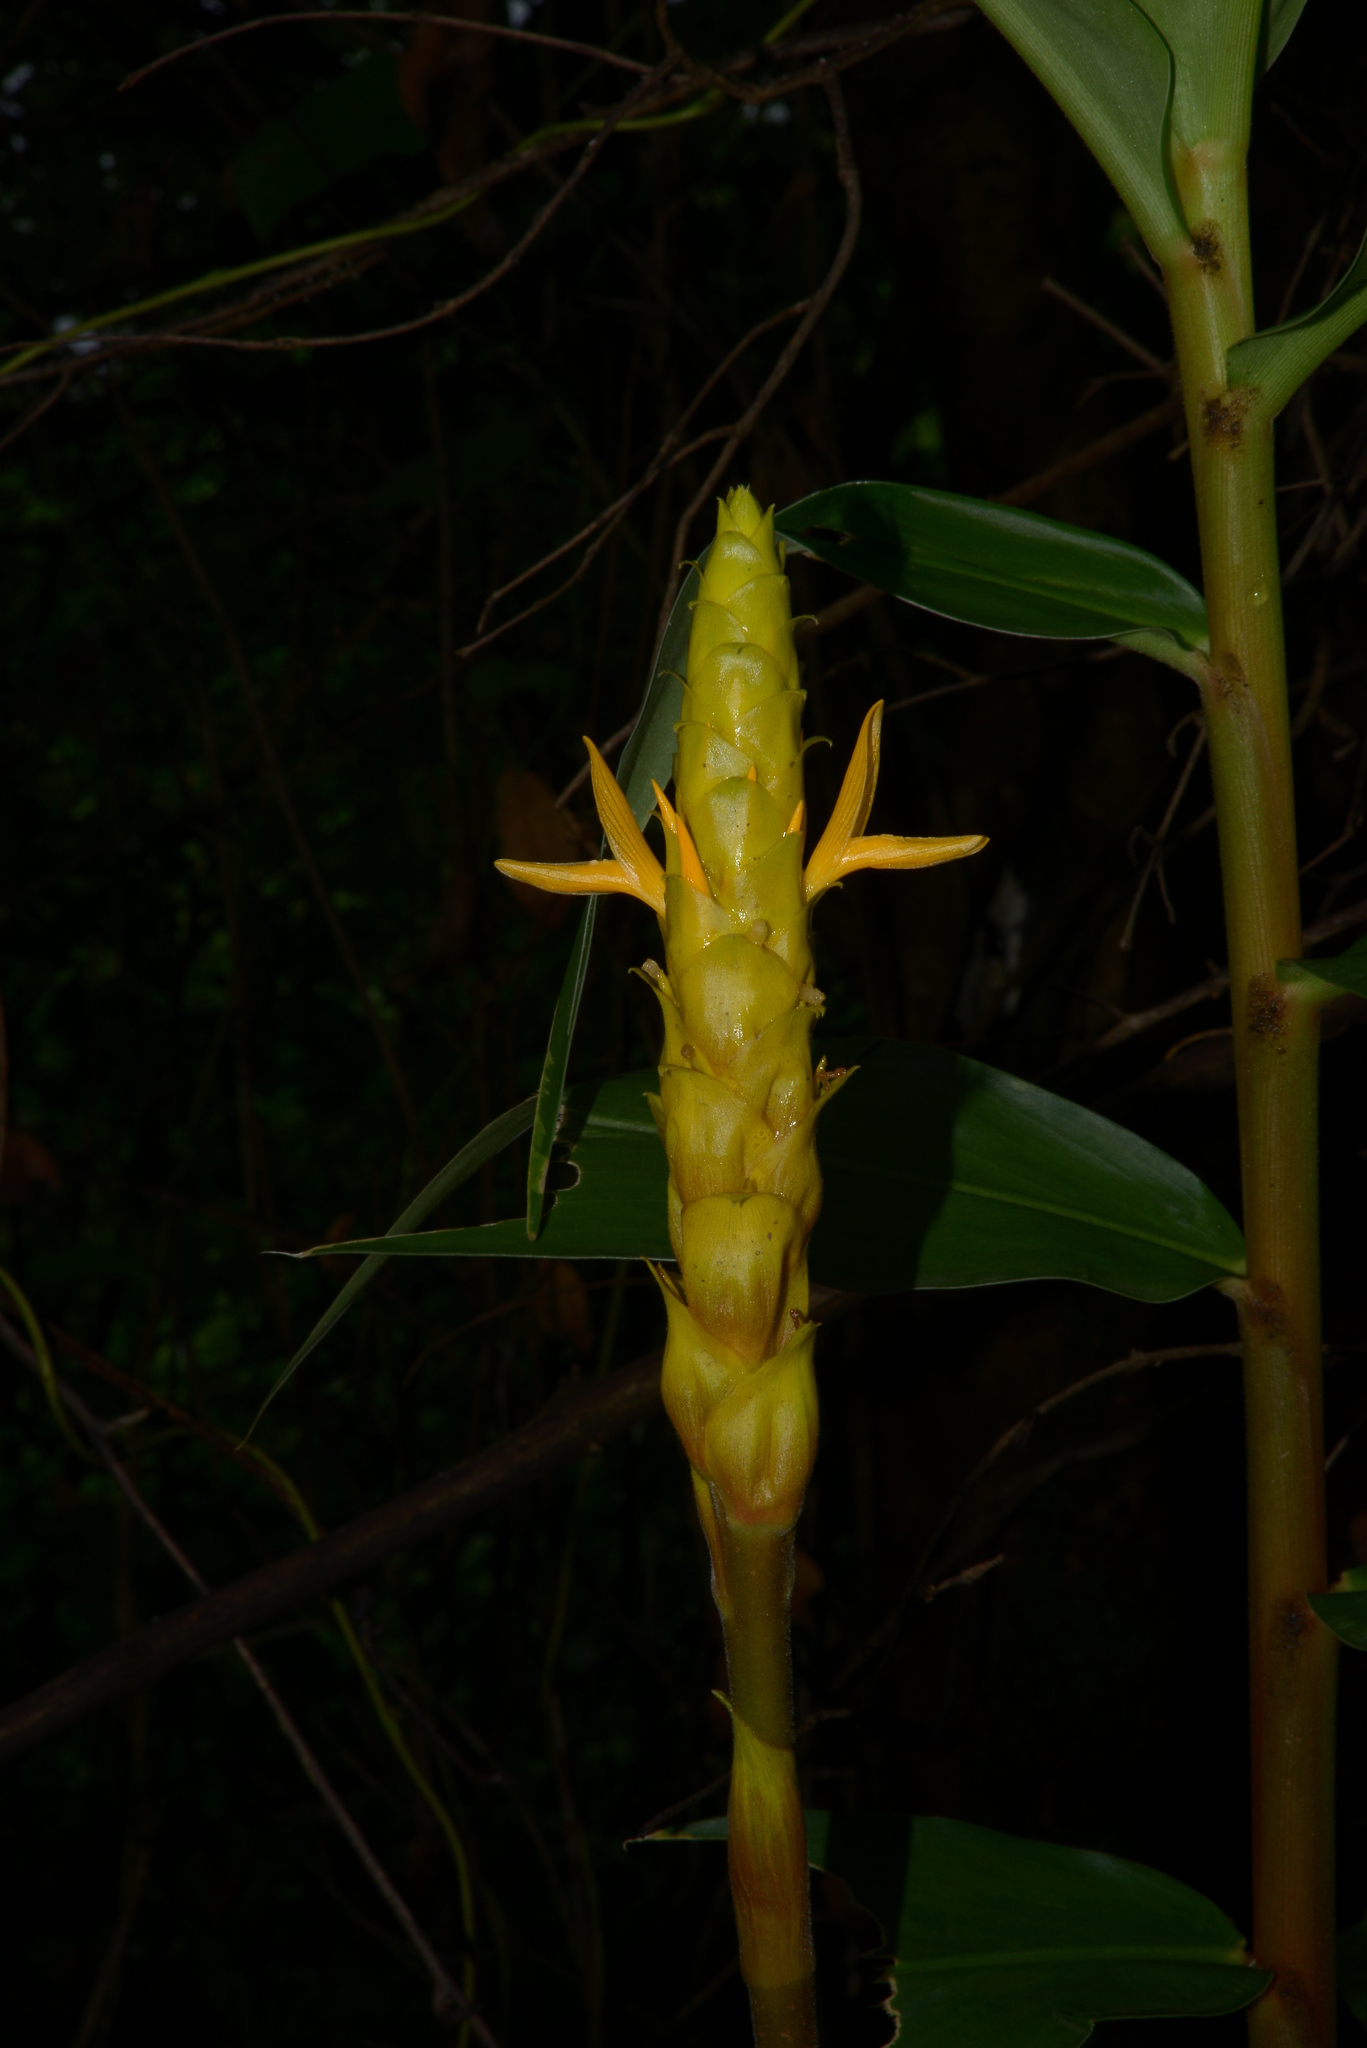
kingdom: Plantae
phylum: Tracheophyta
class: Liliopsida
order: Zingiberales
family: Zingiberaceae
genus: Zingiber
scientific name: Zingiber neesanum
